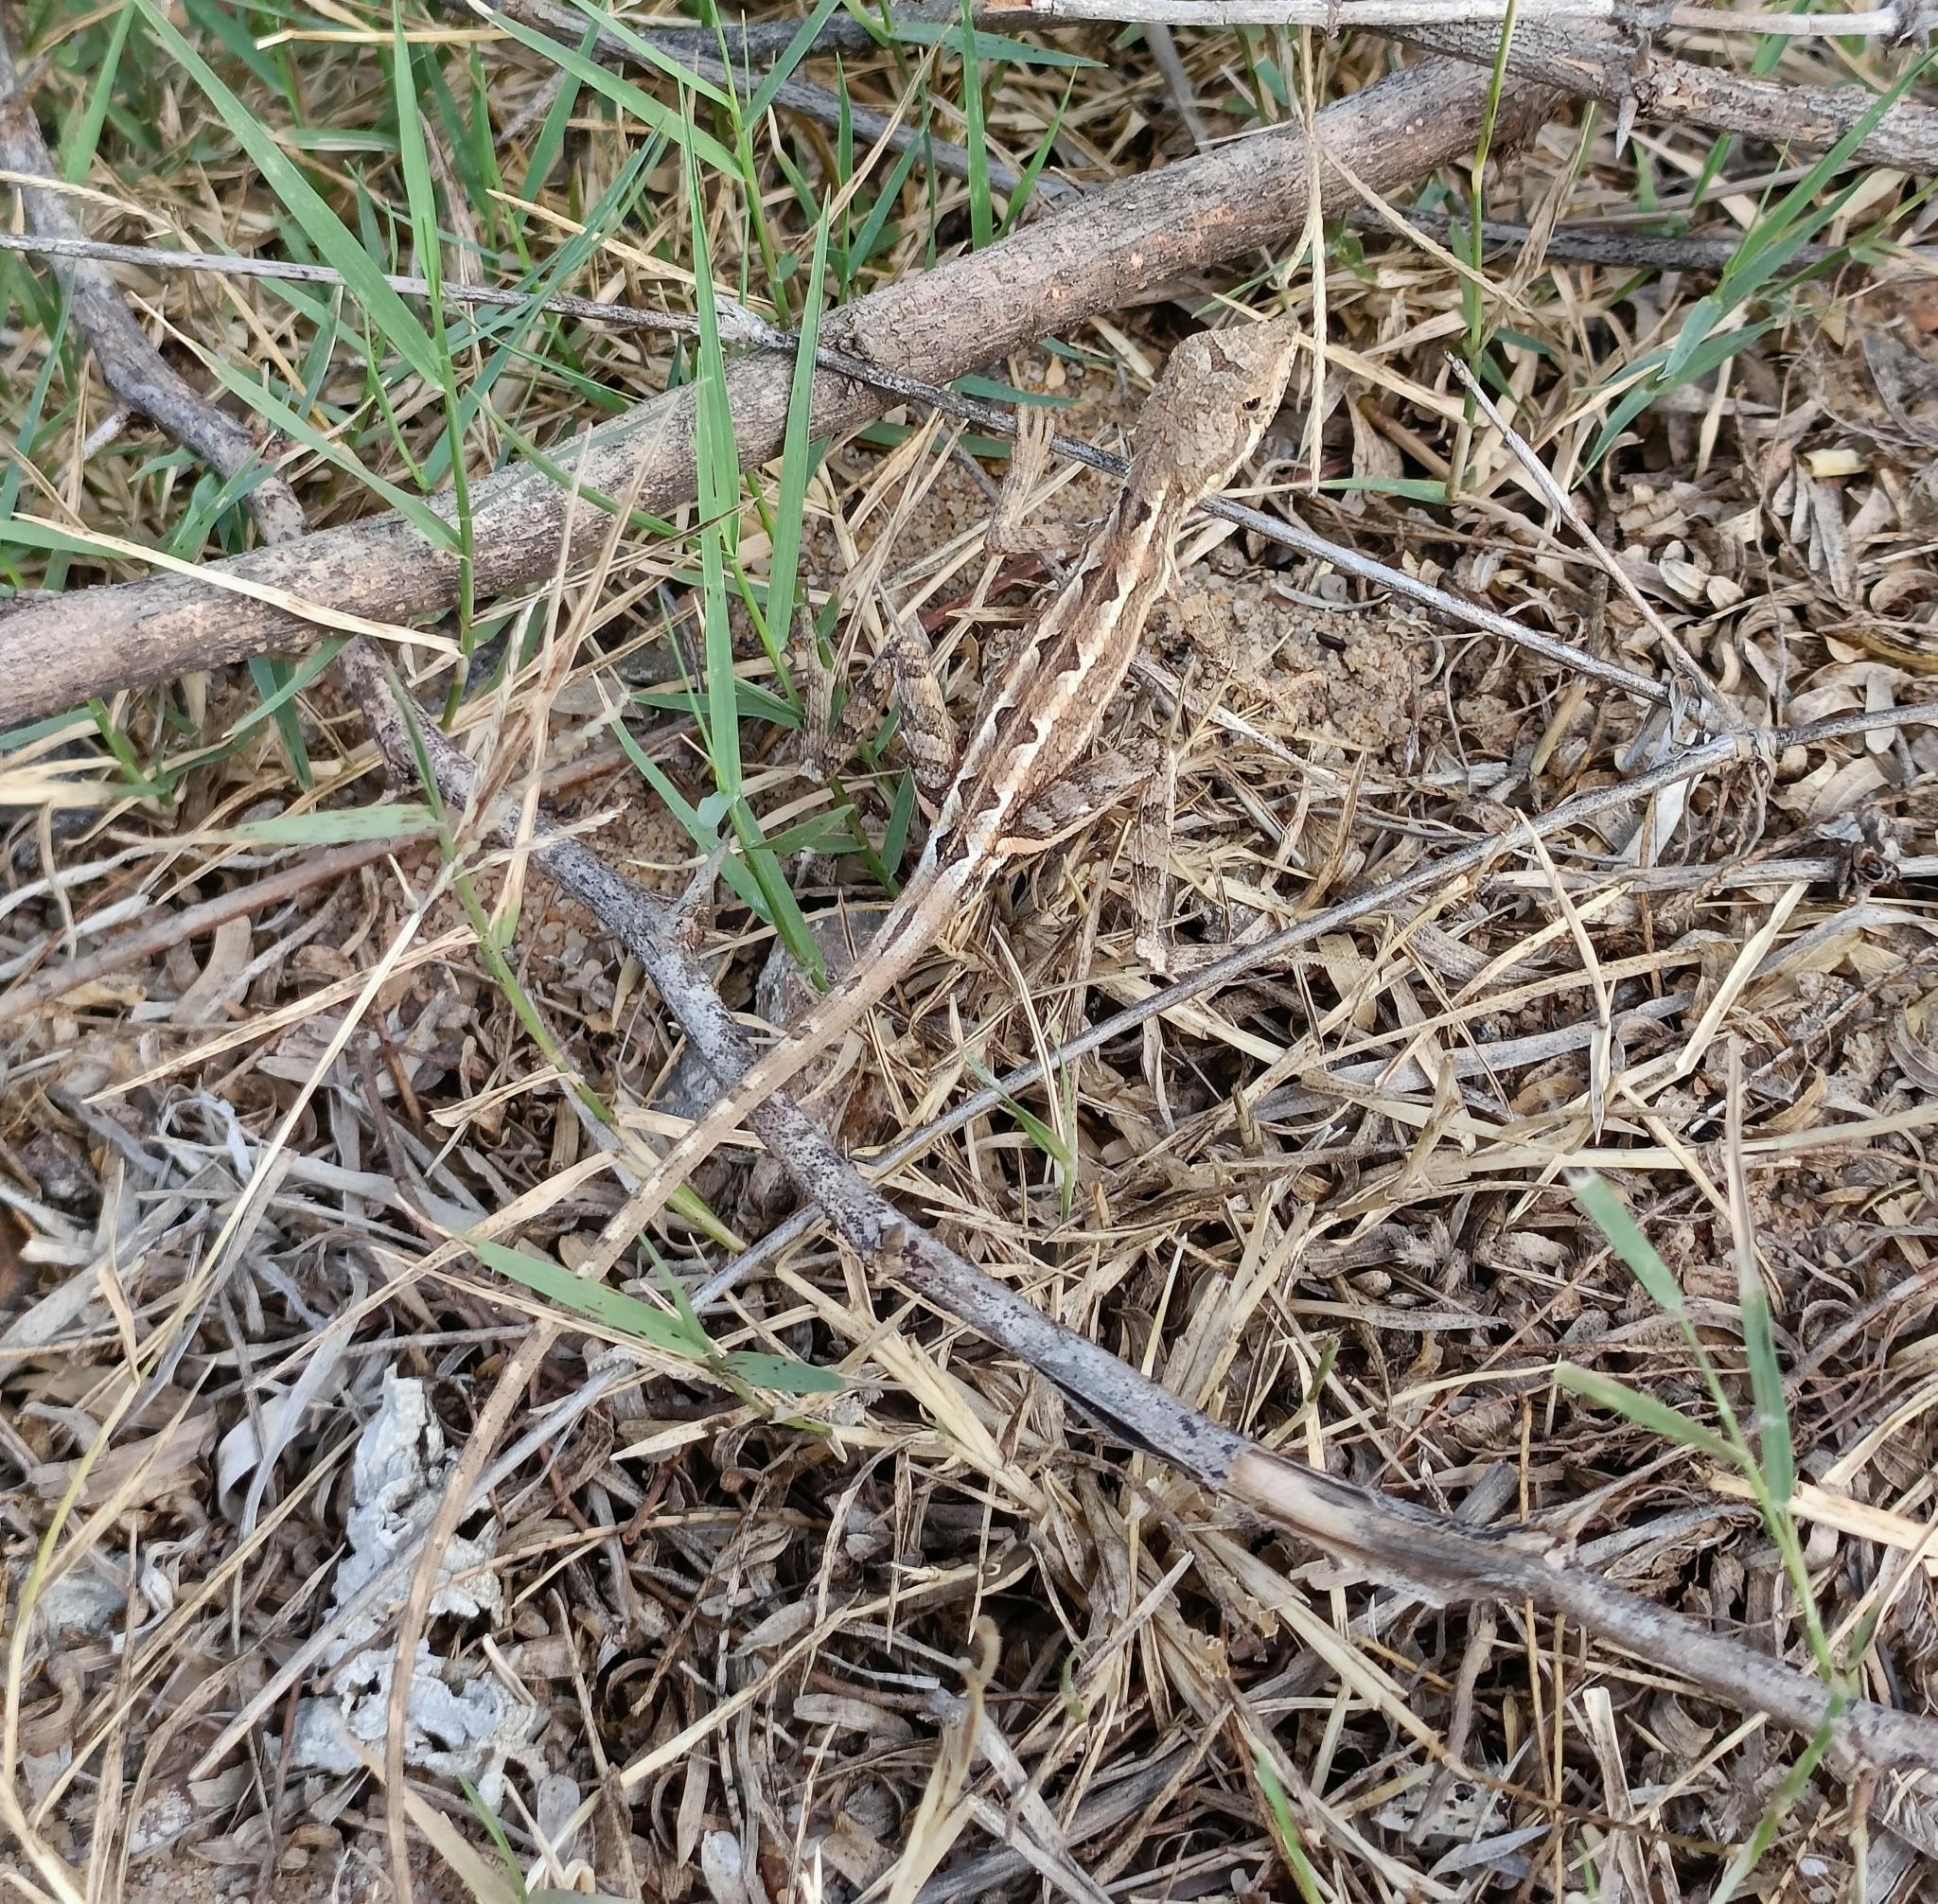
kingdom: Animalia
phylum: Chordata
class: Squamata
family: Agamidae
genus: Sitana
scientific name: Sitana spinaecephalus
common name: Spiny-headed fan-throated lizard
